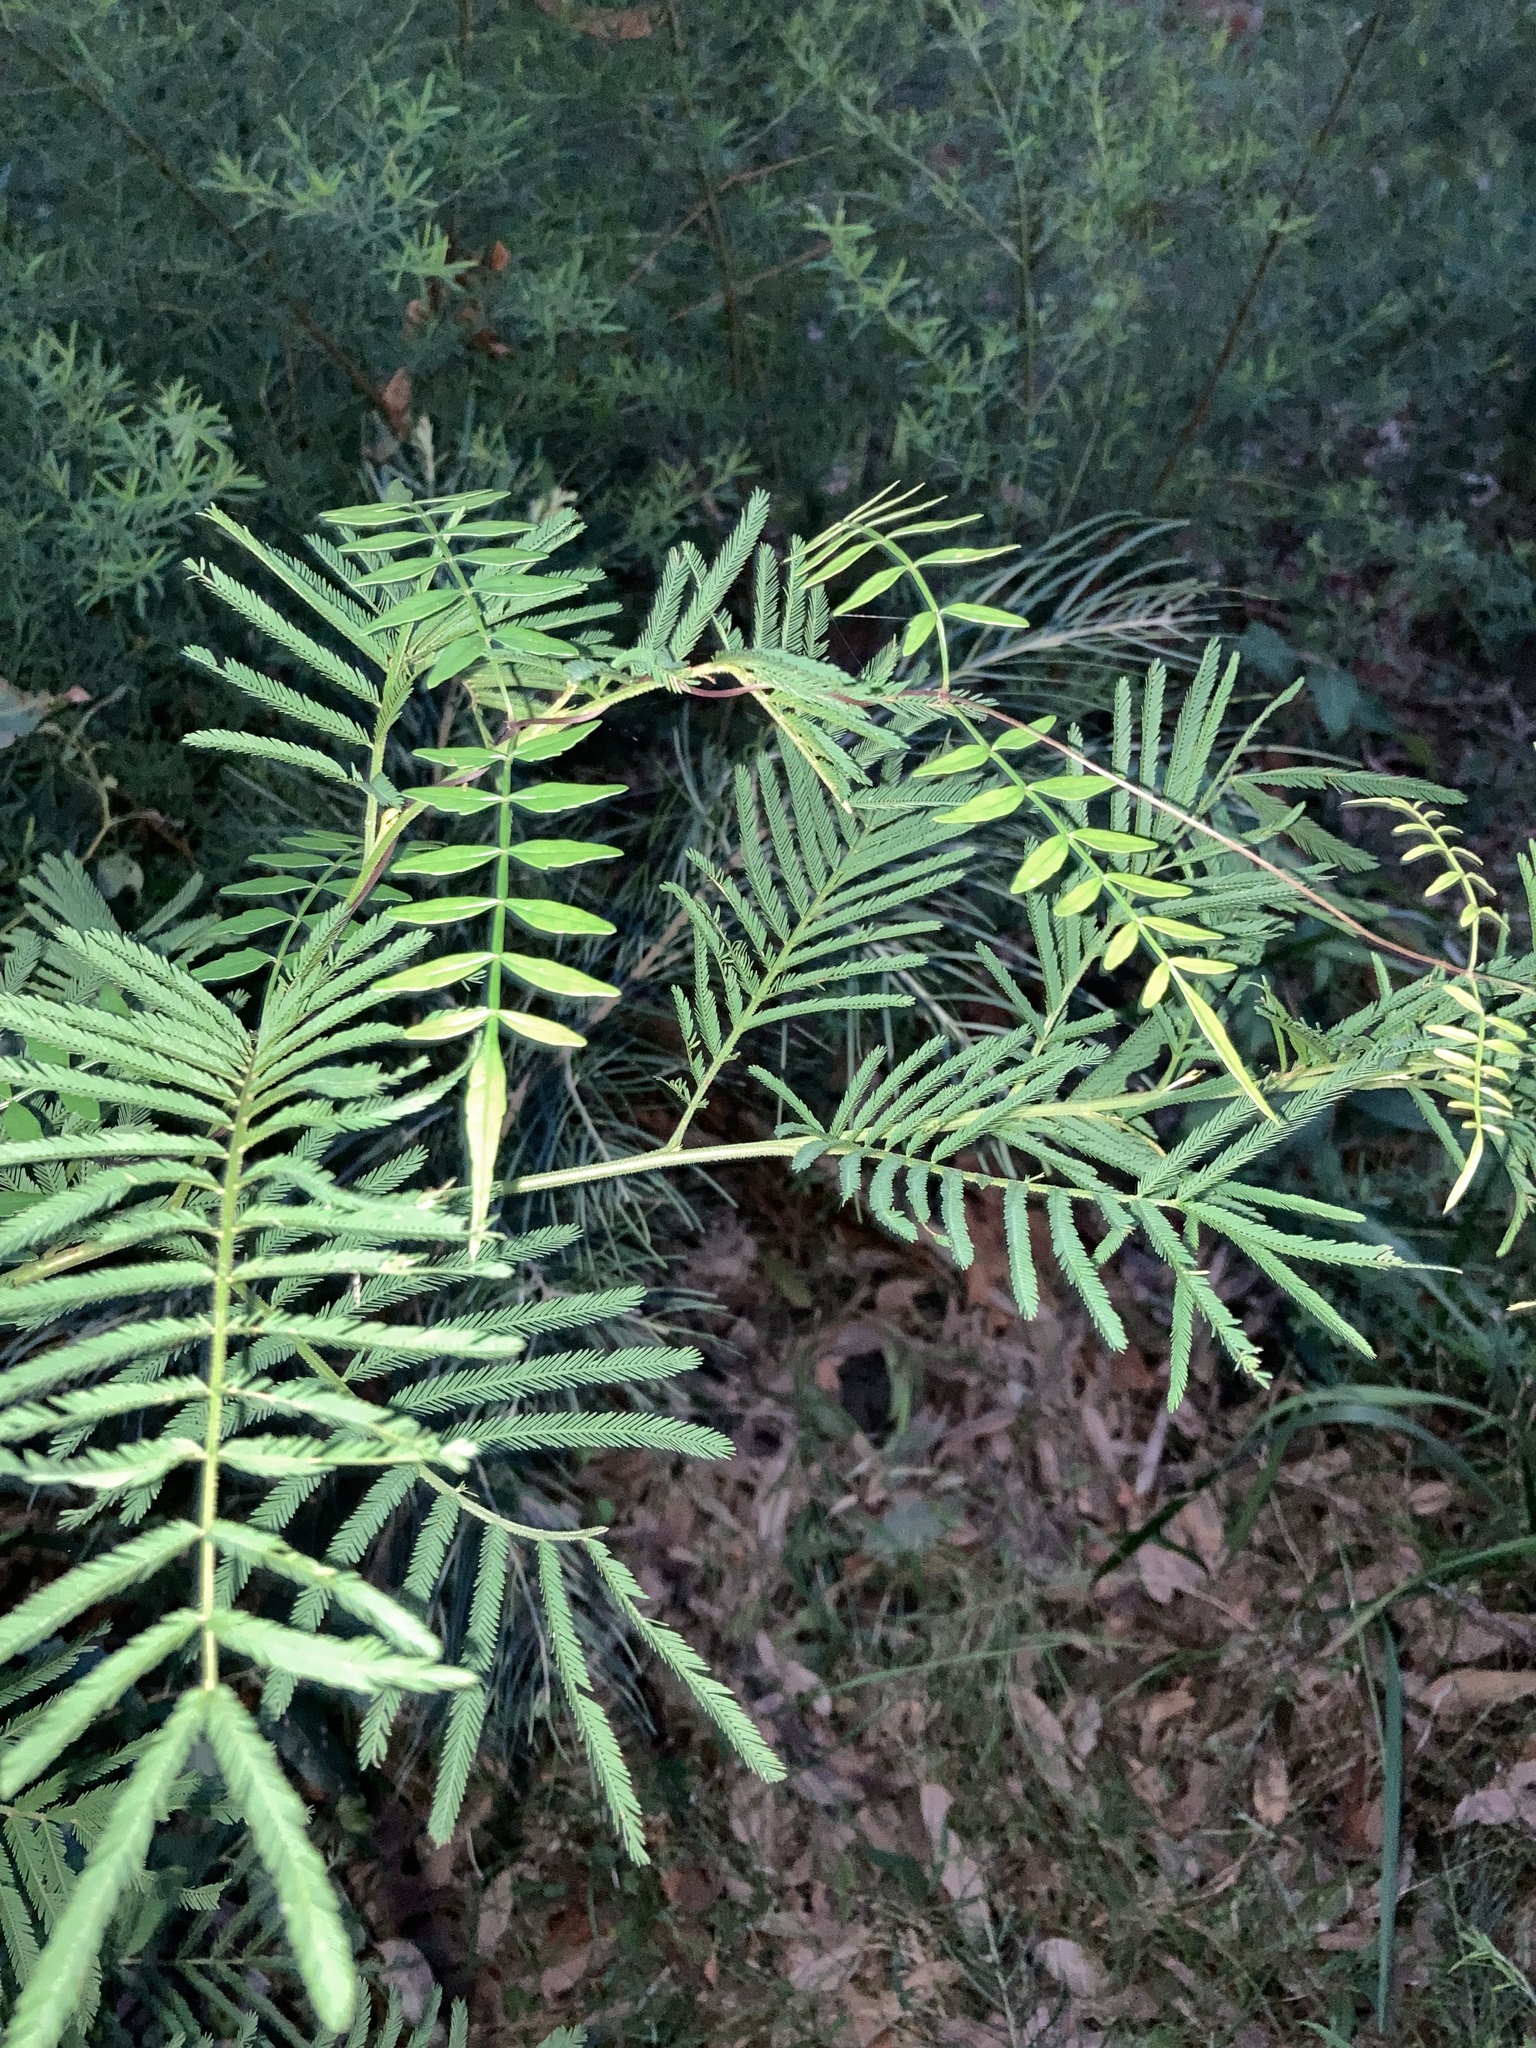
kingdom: Plantae
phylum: Tracheophyta
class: Magnoliopsida
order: Lamiales
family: Bignoniaceae
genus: Pandorea
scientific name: Pandorea pandorana
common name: Wonga-wonga-vine
